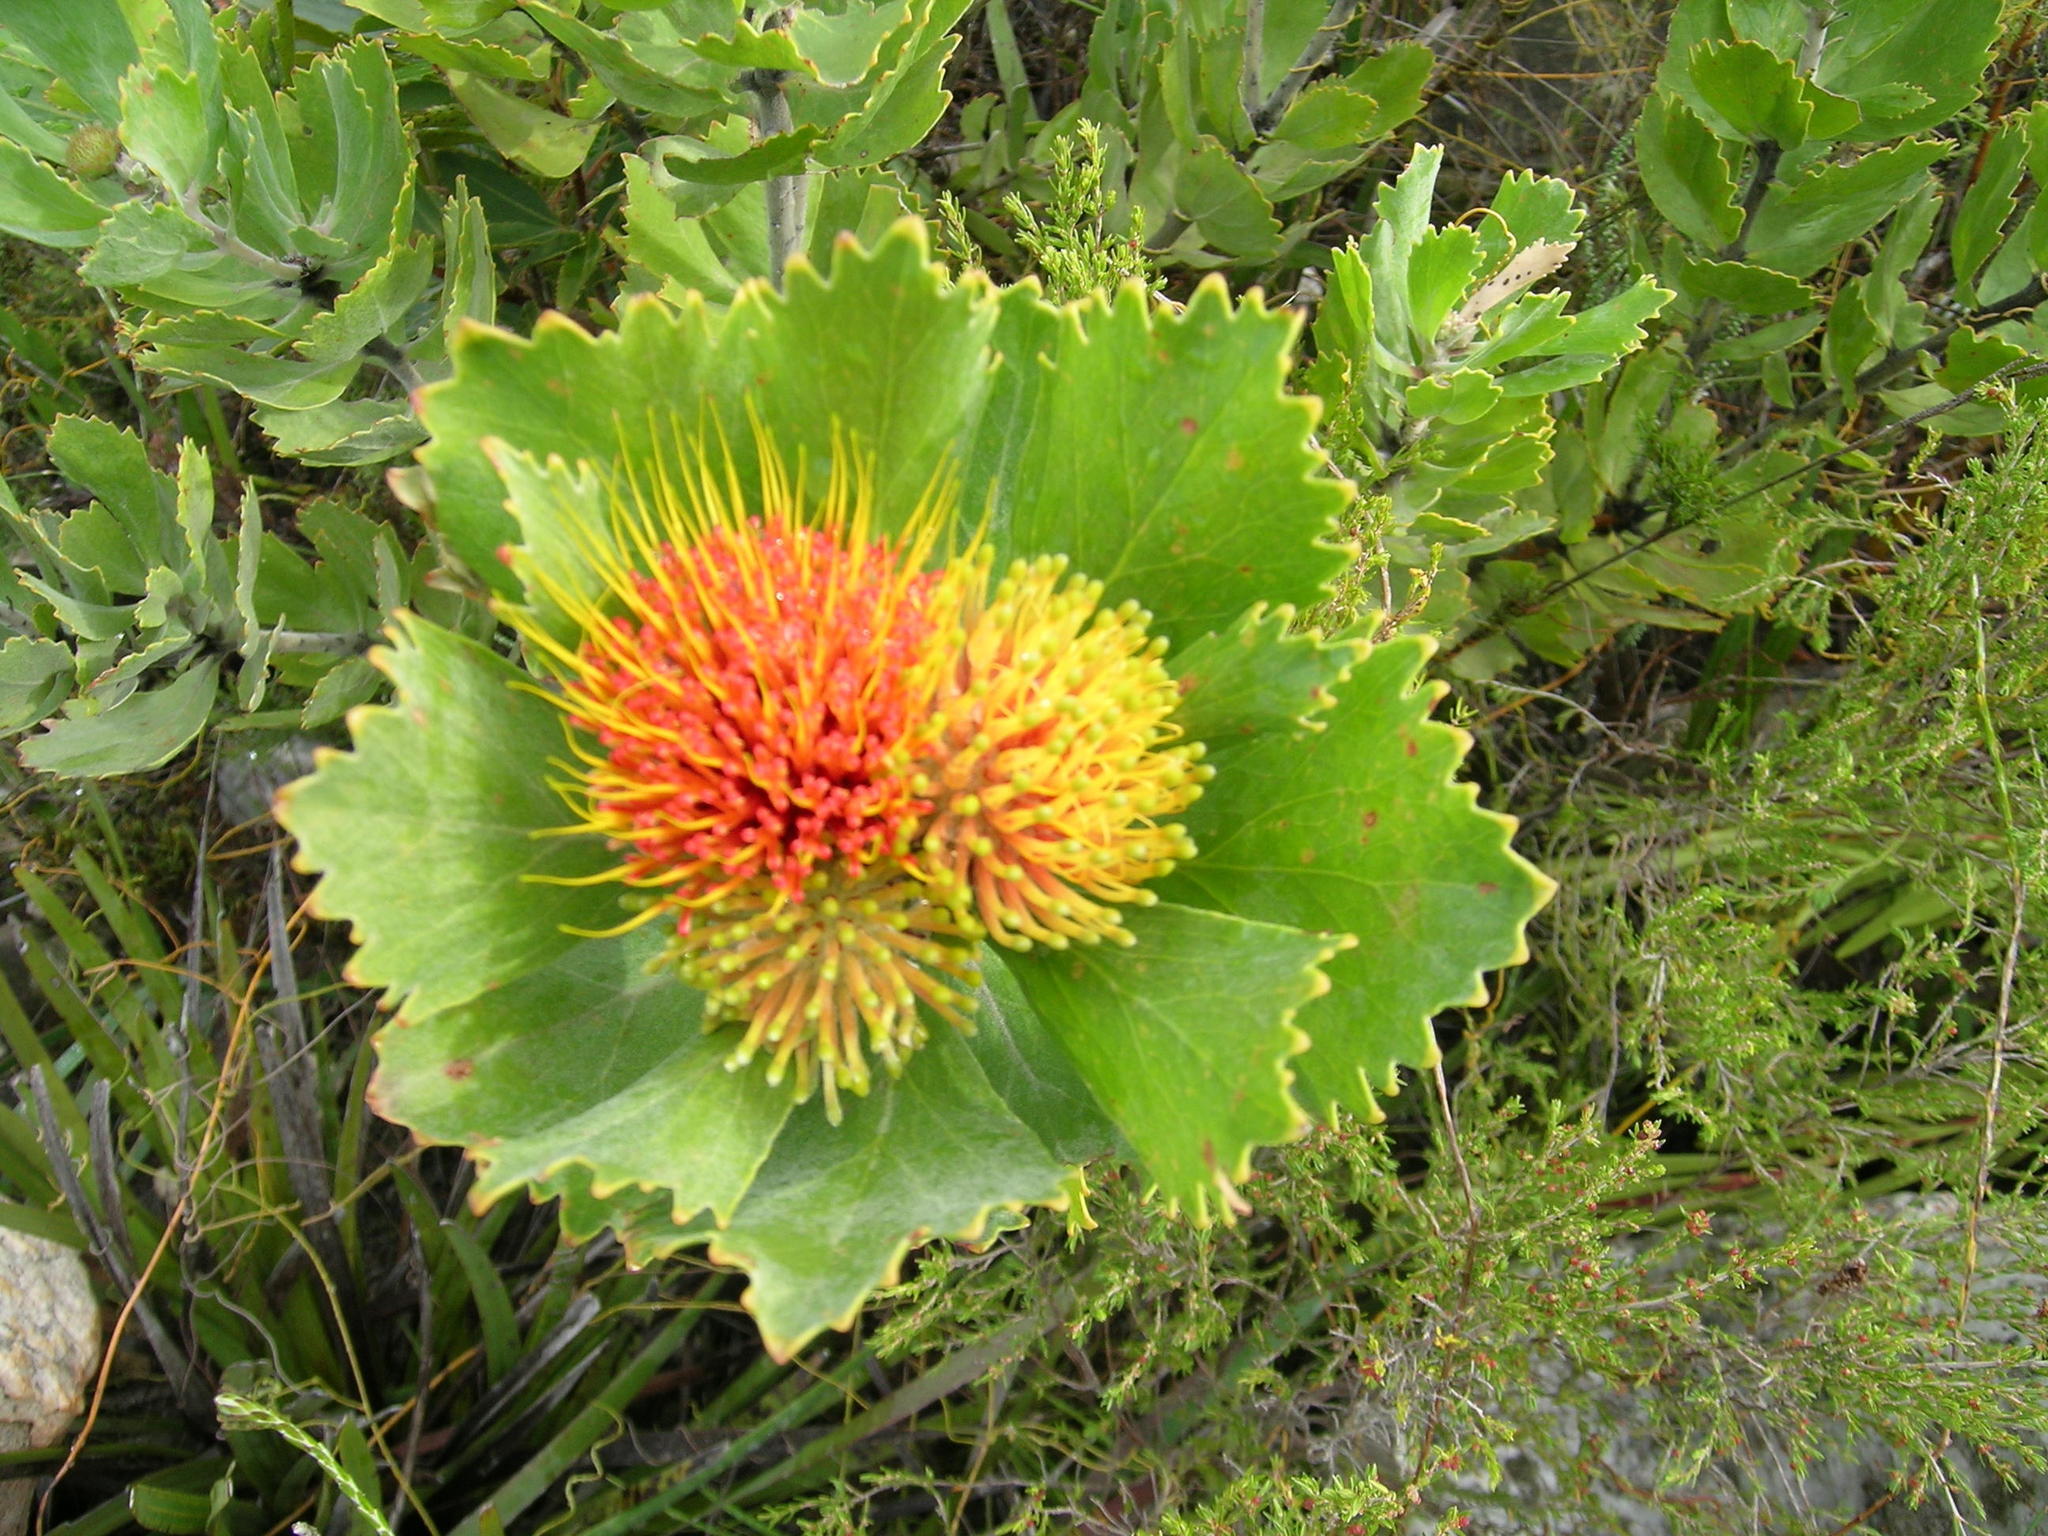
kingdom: Plantae
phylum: Tracheophyta
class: Magnoliopsida
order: Proteales
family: Proteaceae
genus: Leucospermum
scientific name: Leucospermum mundii
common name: Langeberg pincushion
